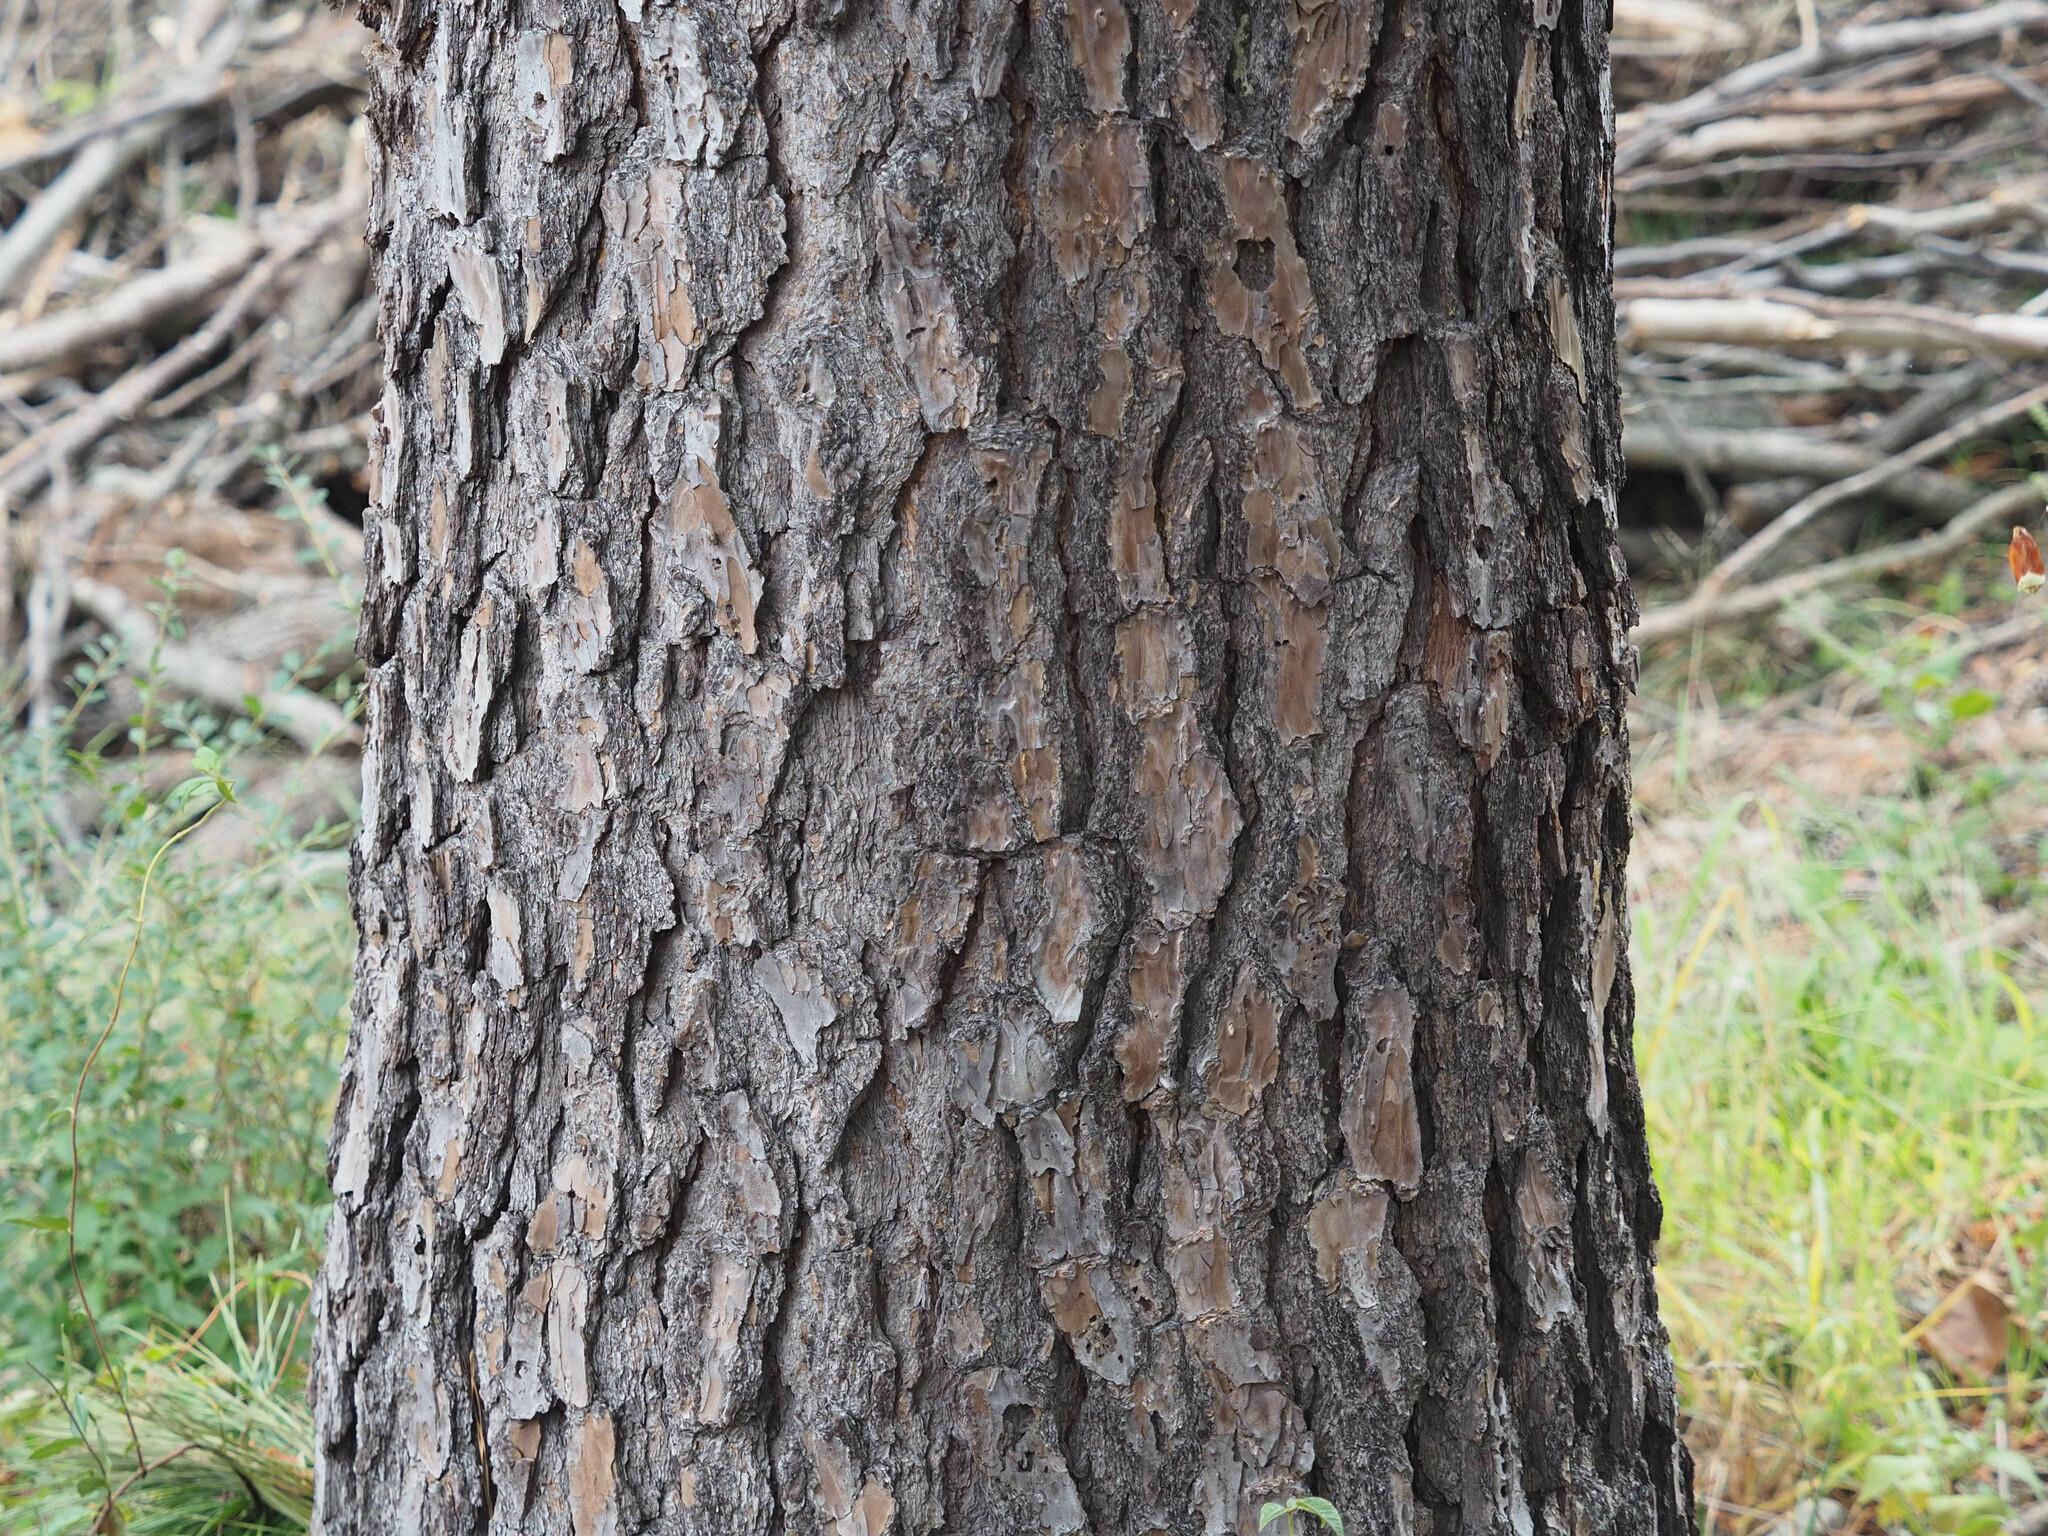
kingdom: Plantae
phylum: Tracheophyta
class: Pinopsida
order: Pinales
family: Pinaceae
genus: Pinus
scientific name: Pinus taeda
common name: Loblolly pine
